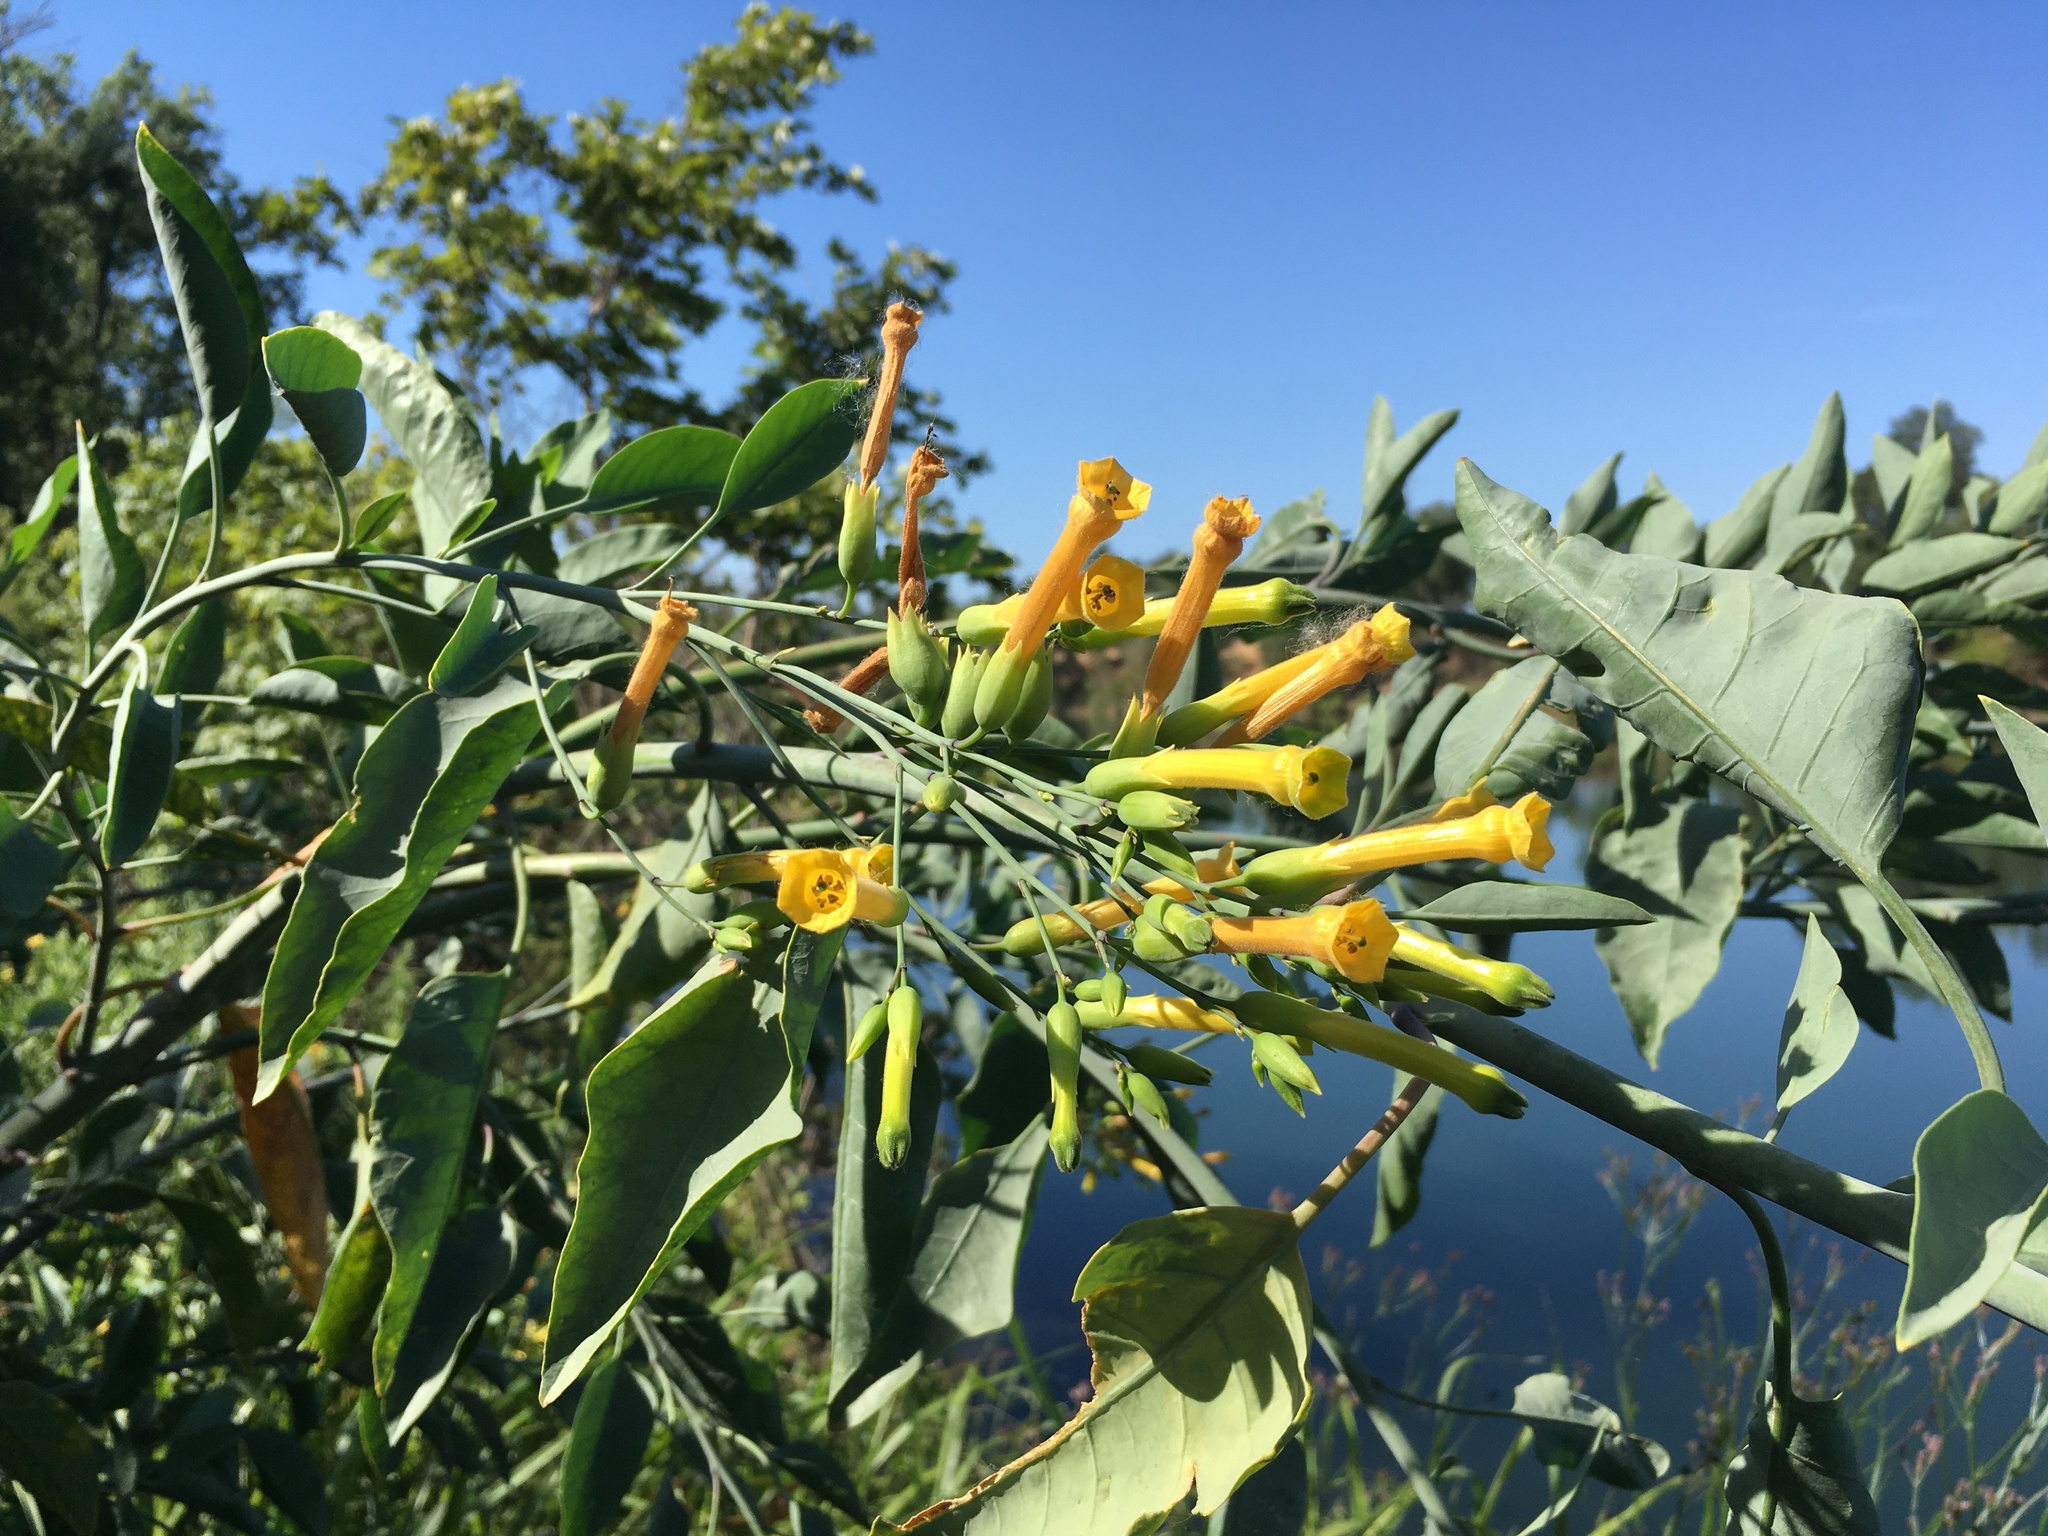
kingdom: Plantae
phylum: Tracheophyta
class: Magnoliopsida
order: Solanales
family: Solanaceae
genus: Nicotiana
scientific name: Nicotiana glauca
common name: Tree tobacco
